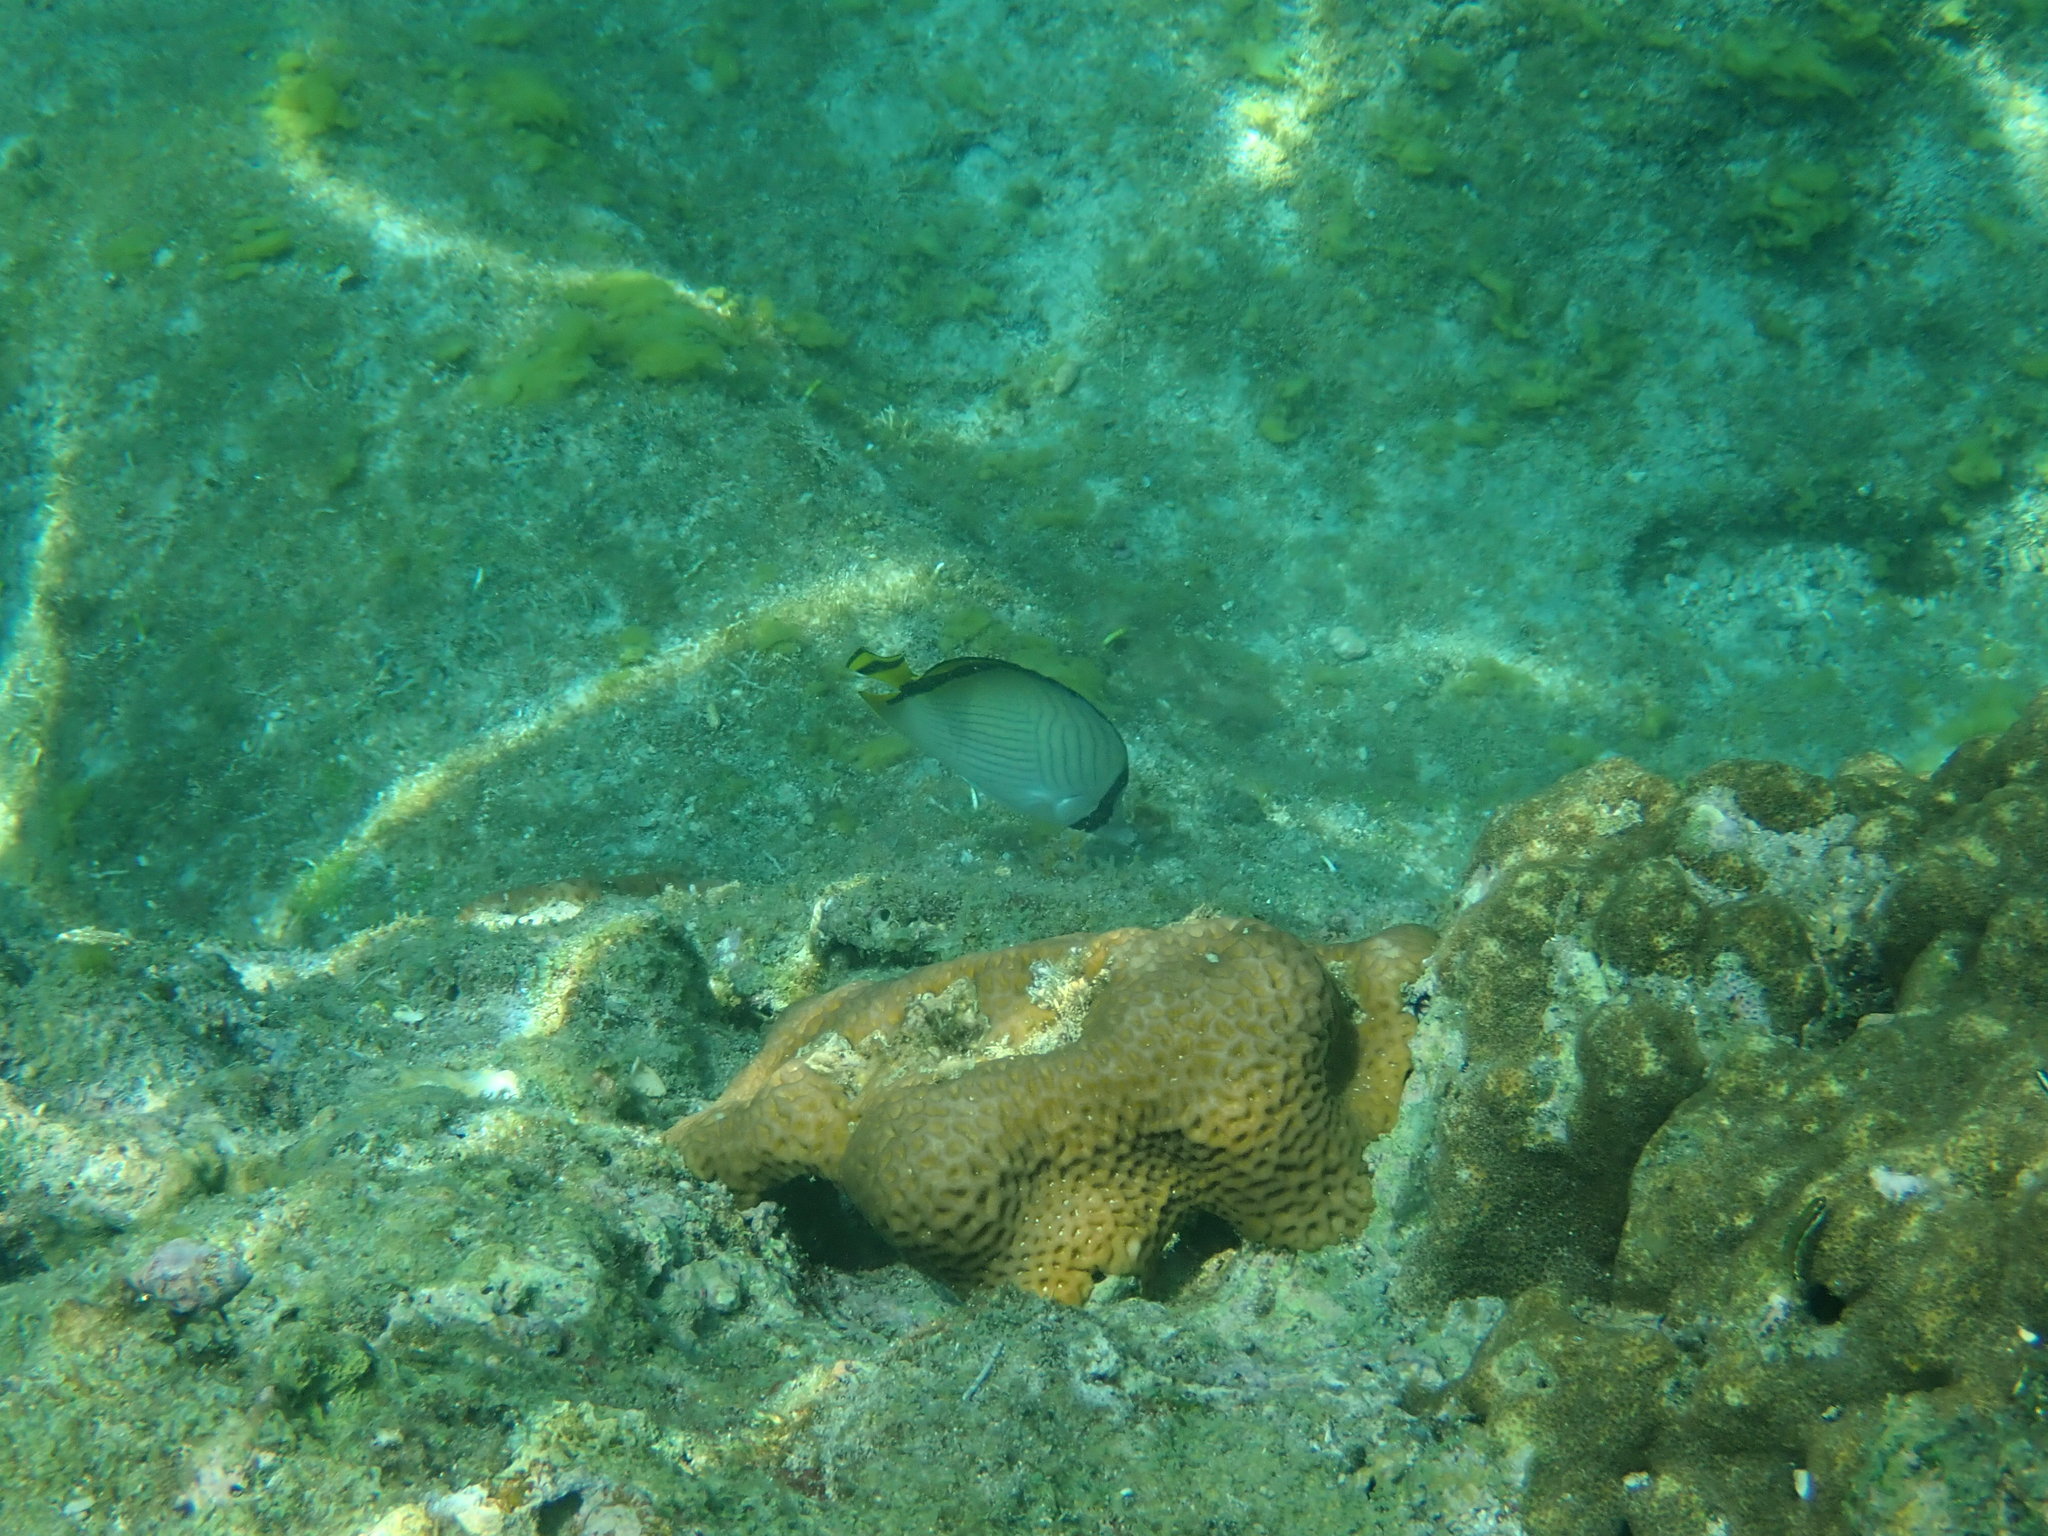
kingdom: Animalia
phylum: Chordata
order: Perciformes
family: Chaetodontidae
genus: Chaetodon
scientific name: Chaetodon vagabundus
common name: Vagabond butterflyfish
